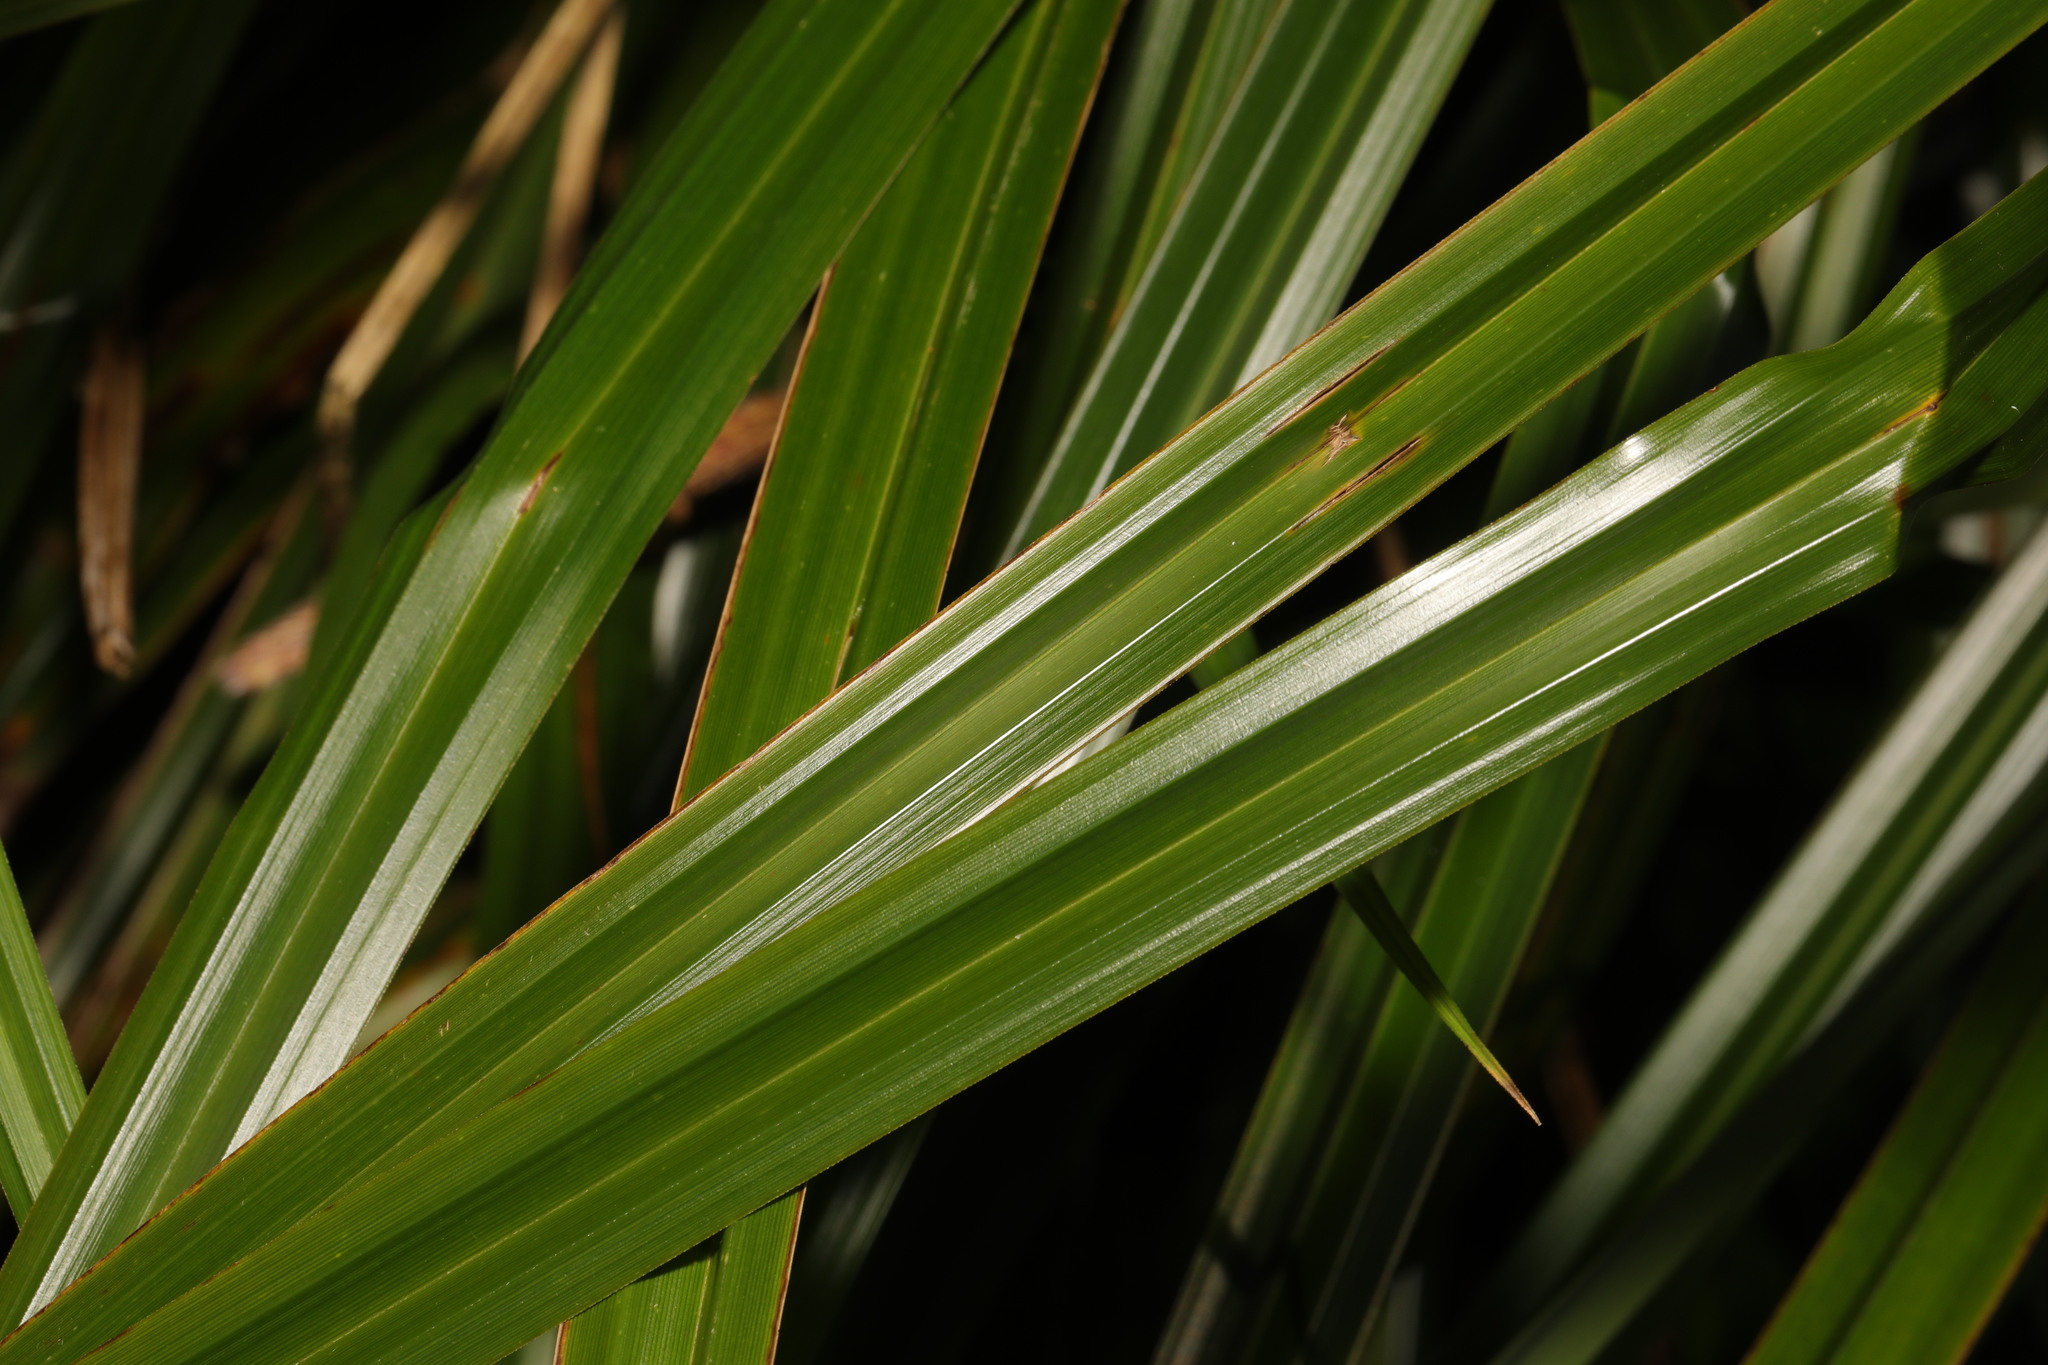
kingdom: Plantae
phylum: Tracheophyta
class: Liliopsida
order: Poales
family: Cyperaceae
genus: Carex
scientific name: Carex pendula
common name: Pendulous sedge
